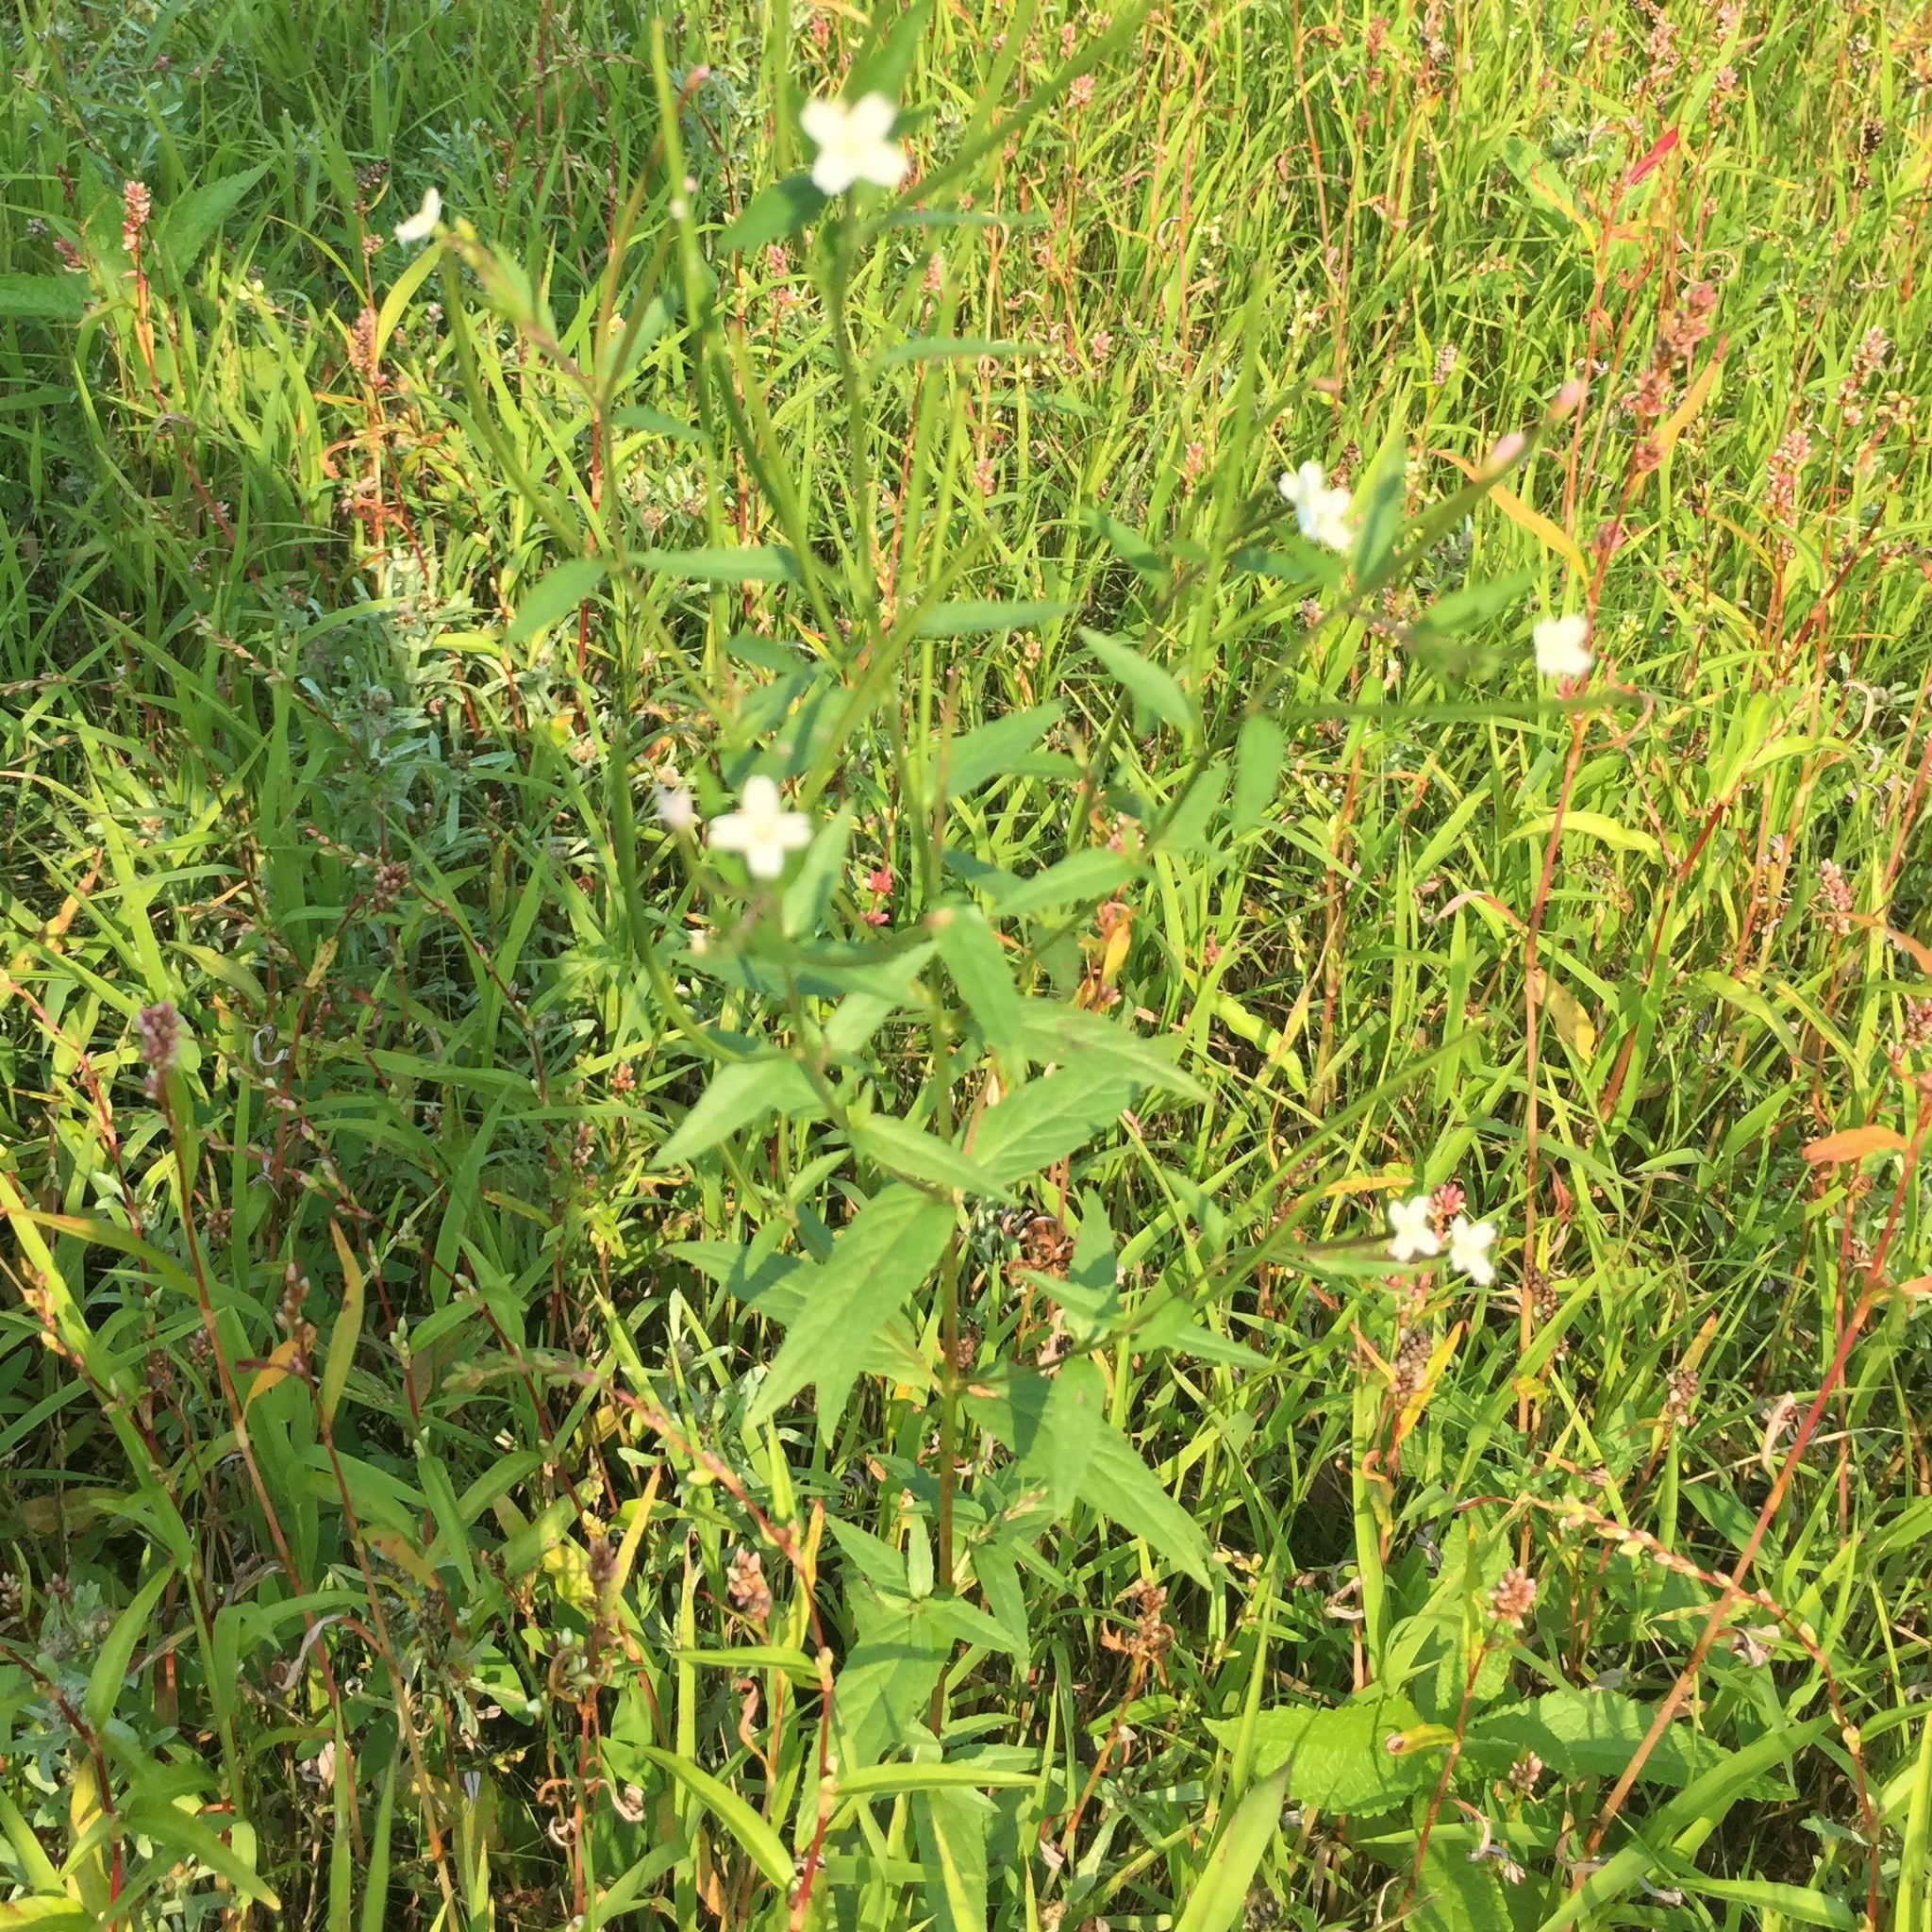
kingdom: Plantae
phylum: Tracheophyta
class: Magnoliopsida
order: Myrtales
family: Onagraceae
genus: Epilobium
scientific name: Epilobium ciliatum
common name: American willowherb
